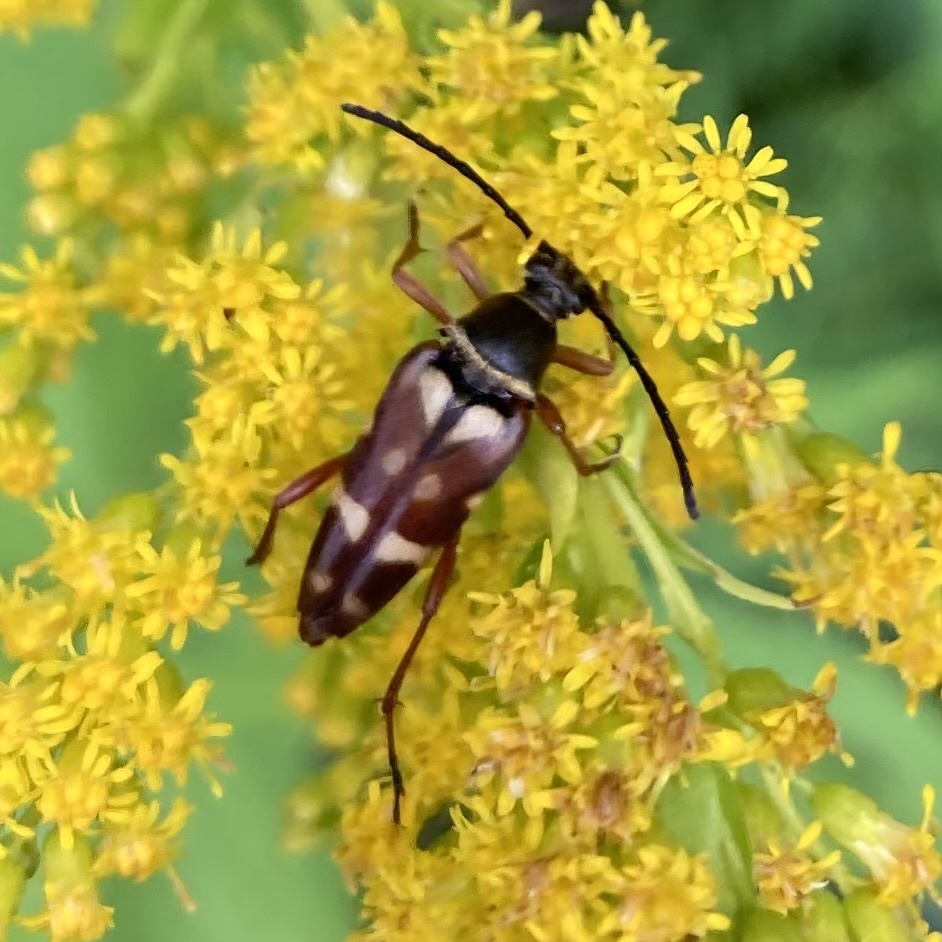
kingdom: Animalia
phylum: Arthropoda
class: Insecta
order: Coleoptera
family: Cerambycidae
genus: Typocerus
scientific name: Typocerus velutinus
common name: Banded longhorn beetle
